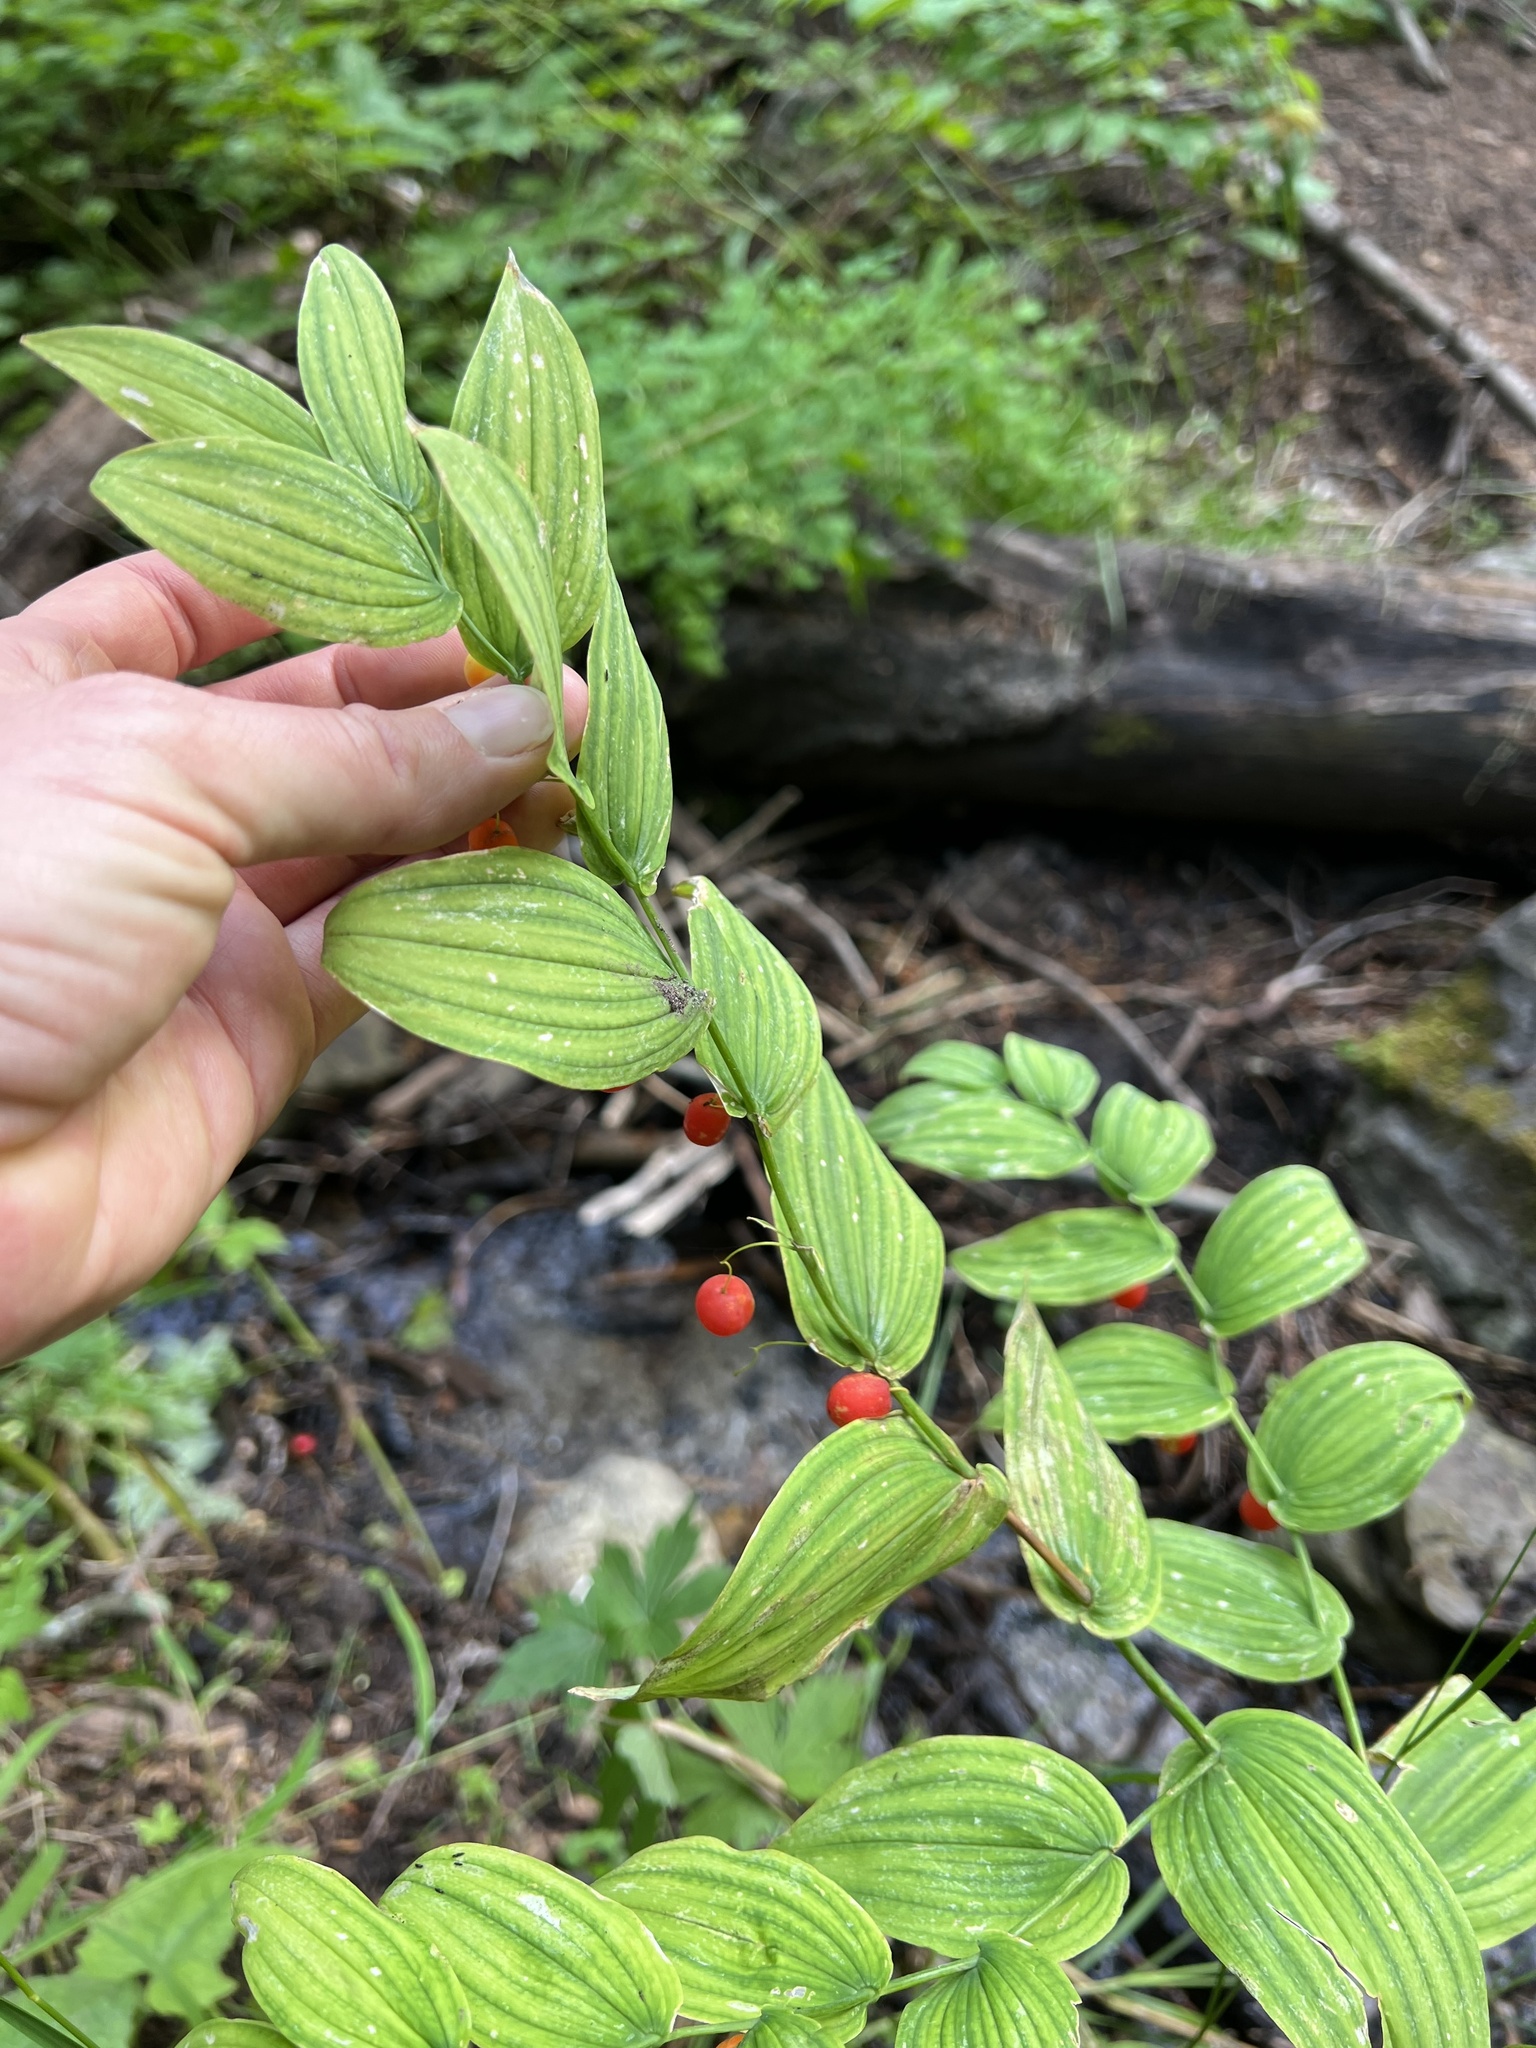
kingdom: Plantae
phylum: Tracheophyta
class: Liliopsida
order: Liliales
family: Liliaceae
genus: Streptopus
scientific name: Streptopus amplexifolius
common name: Clasp twisted stalk
